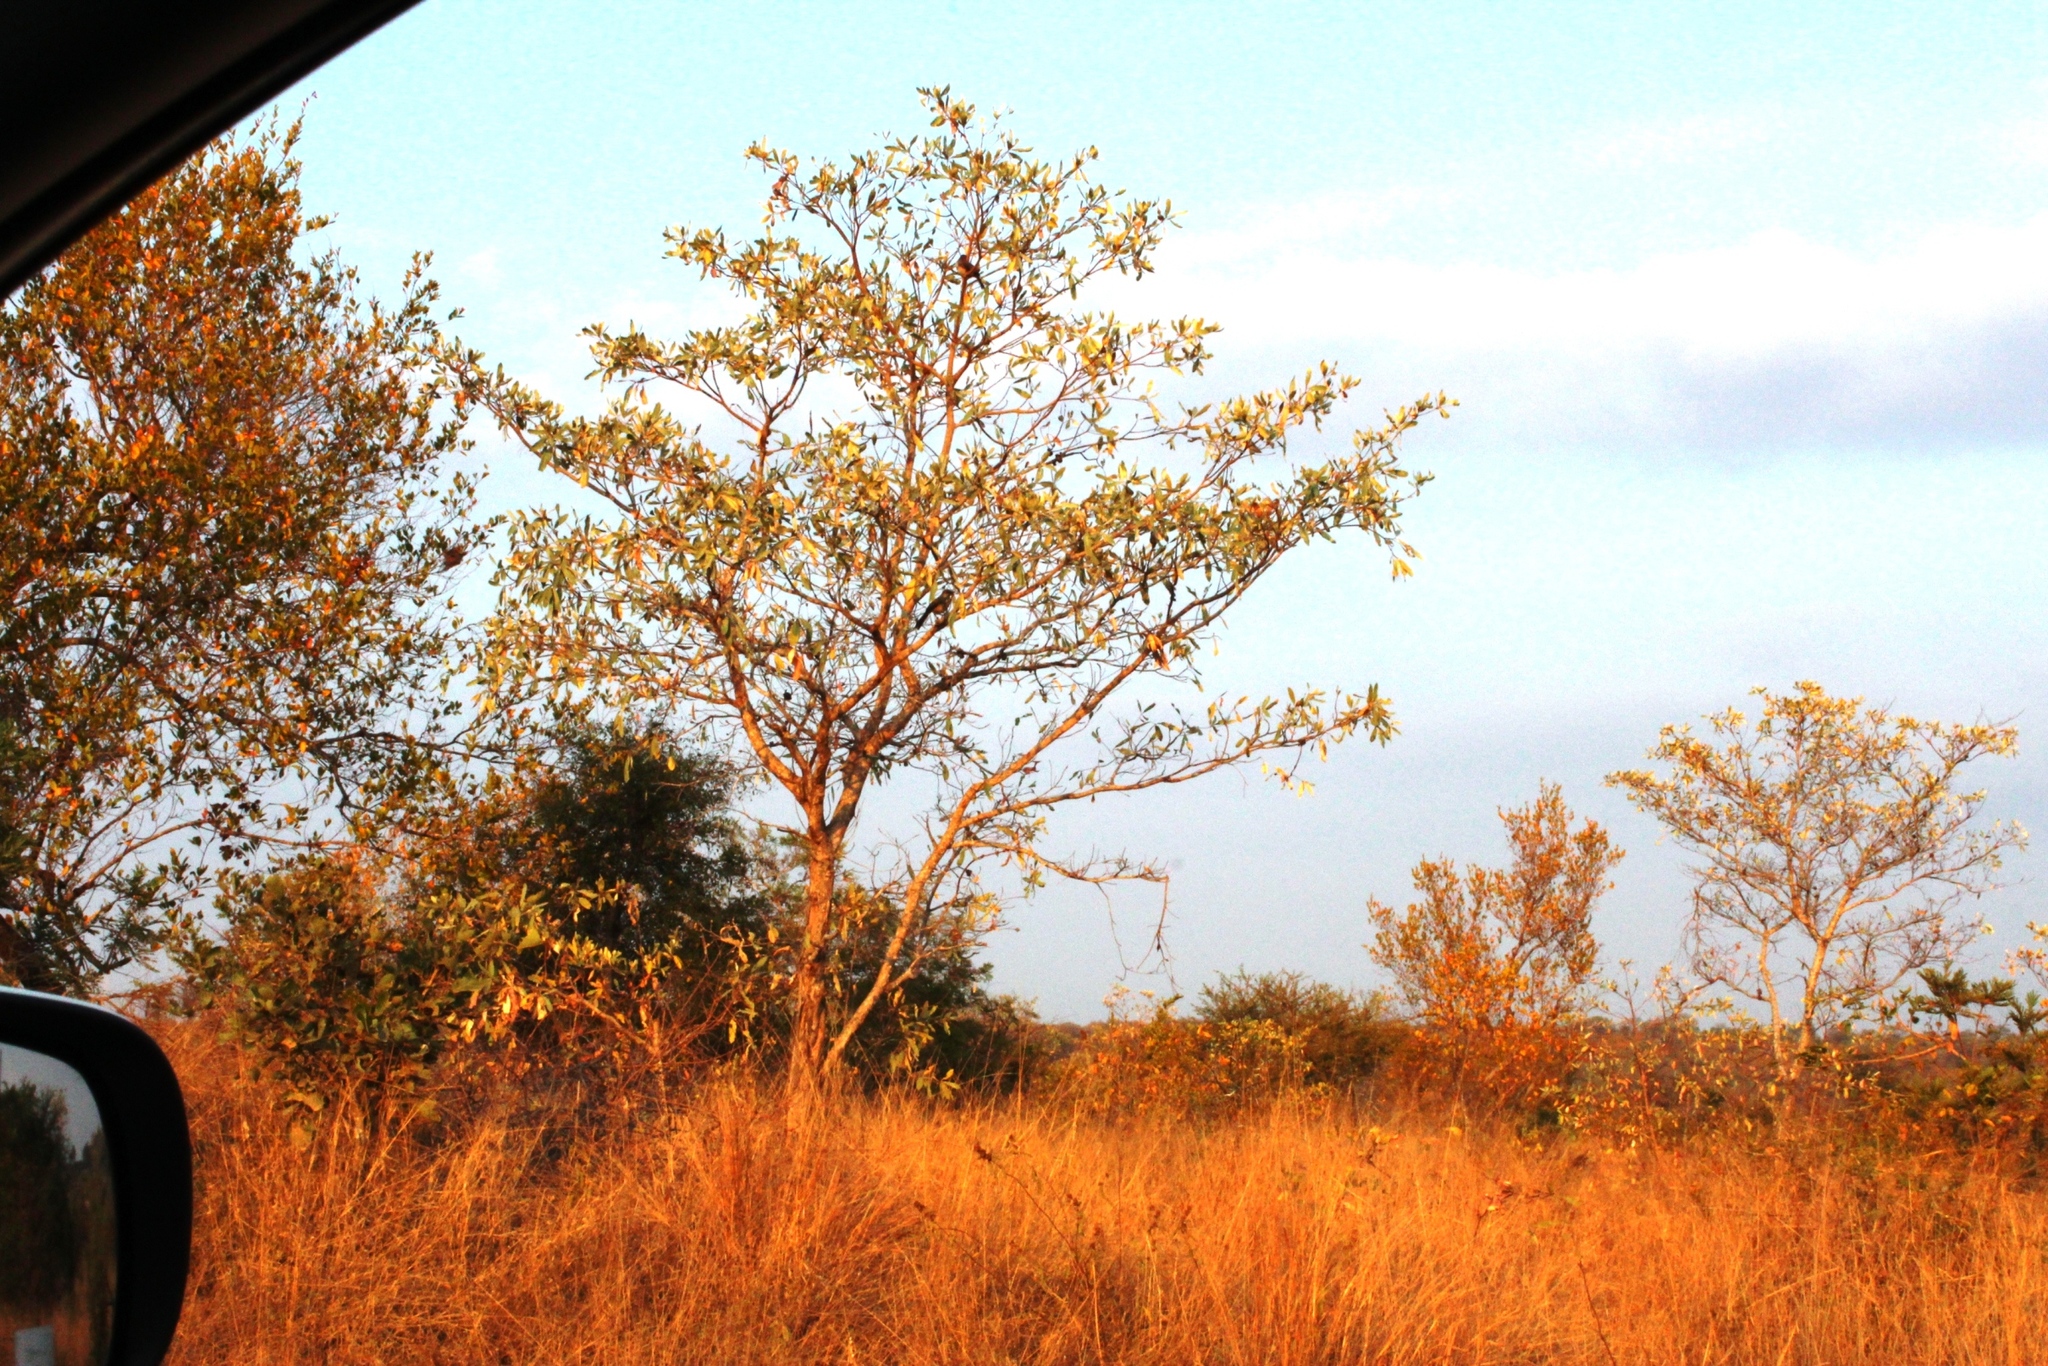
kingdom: Plantae
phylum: Tracheophyta
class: Magnoliopsida
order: Myrtales
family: Combretaceae
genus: Terminalia
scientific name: Terminalia sericea
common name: Clusterleaf
